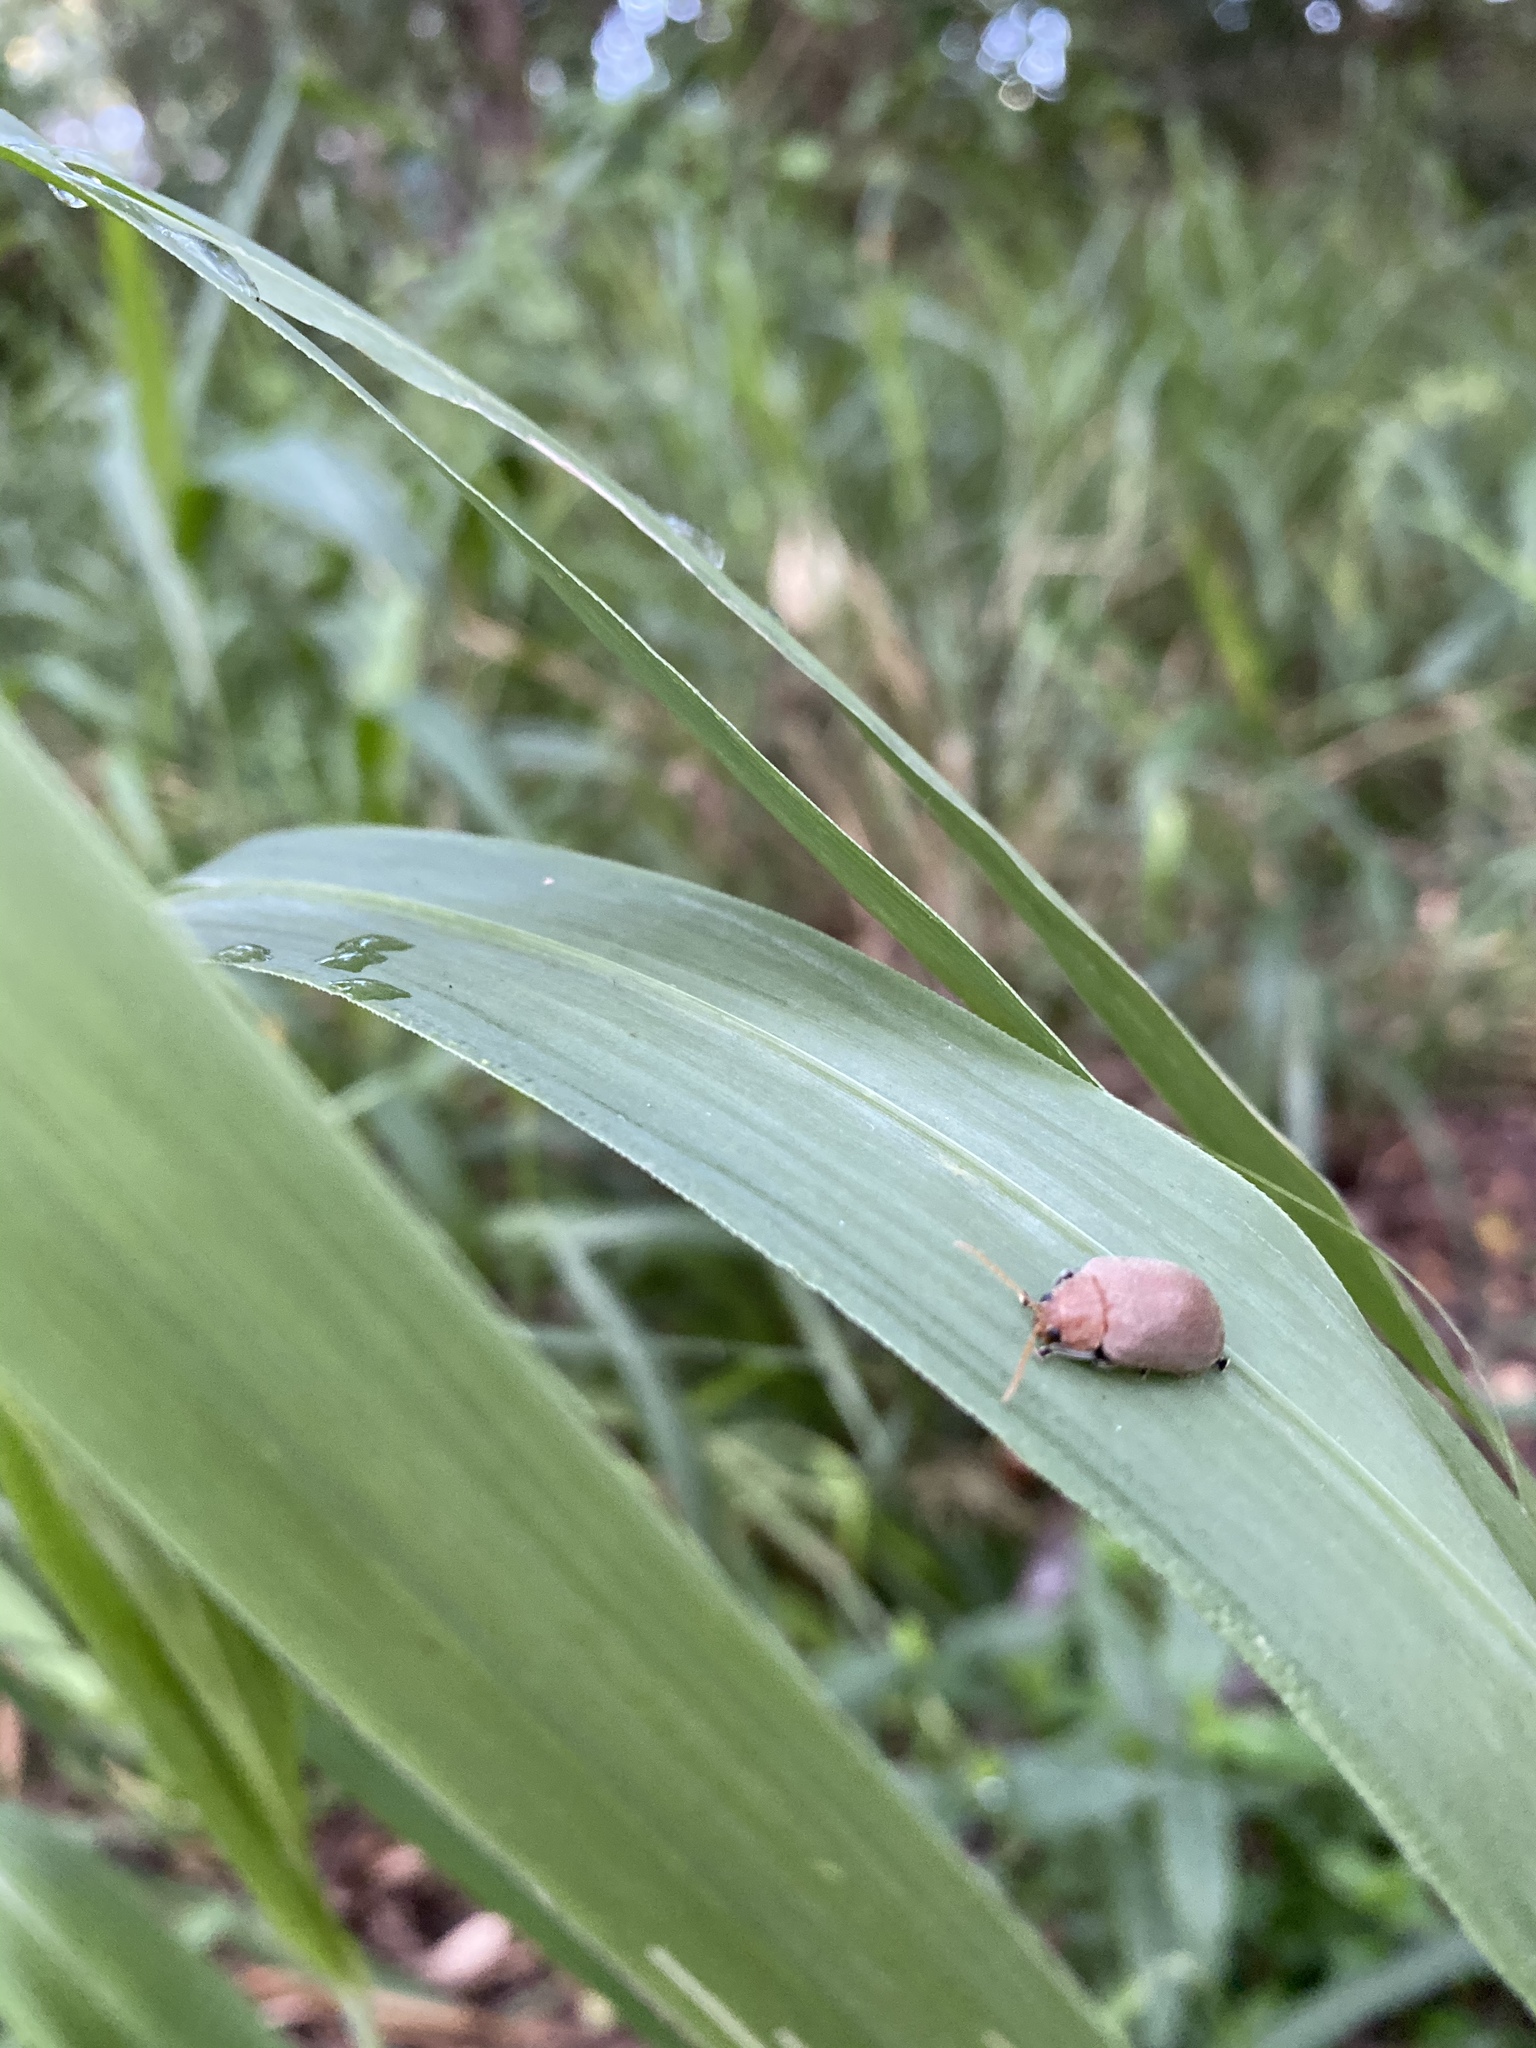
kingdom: Animalia
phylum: Arthropoda
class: Insecta
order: Coleoptera
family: Chrysomelidae
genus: Menippus
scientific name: Menippus
